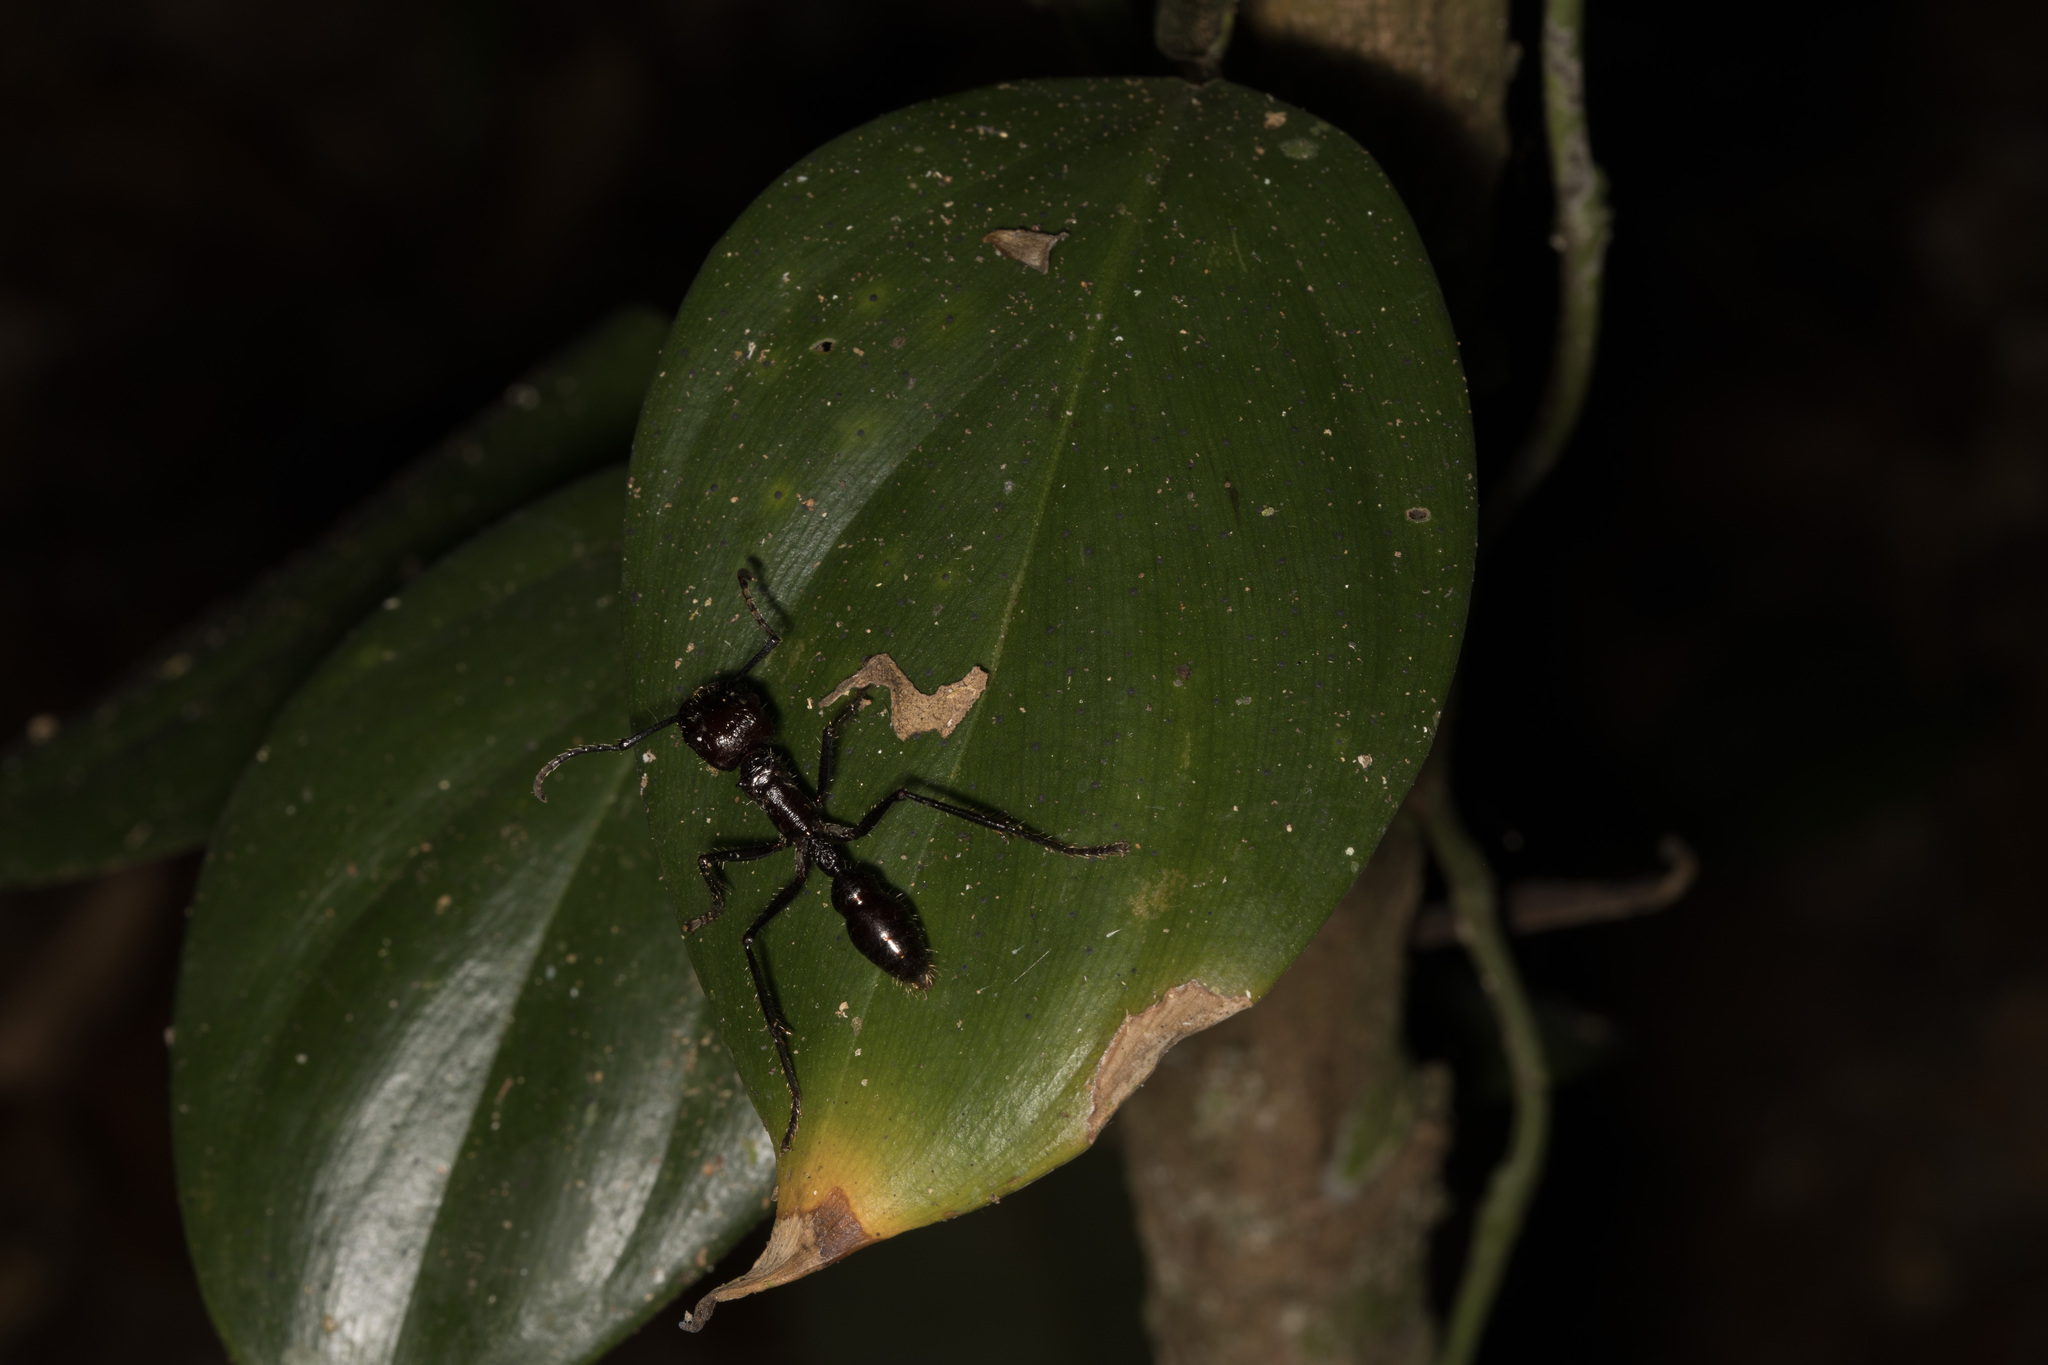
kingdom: Animalia
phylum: Arthropoda
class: Insecta
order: Hymenoptera
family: Formicidae
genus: Paraponera
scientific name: Paraponera clavata
